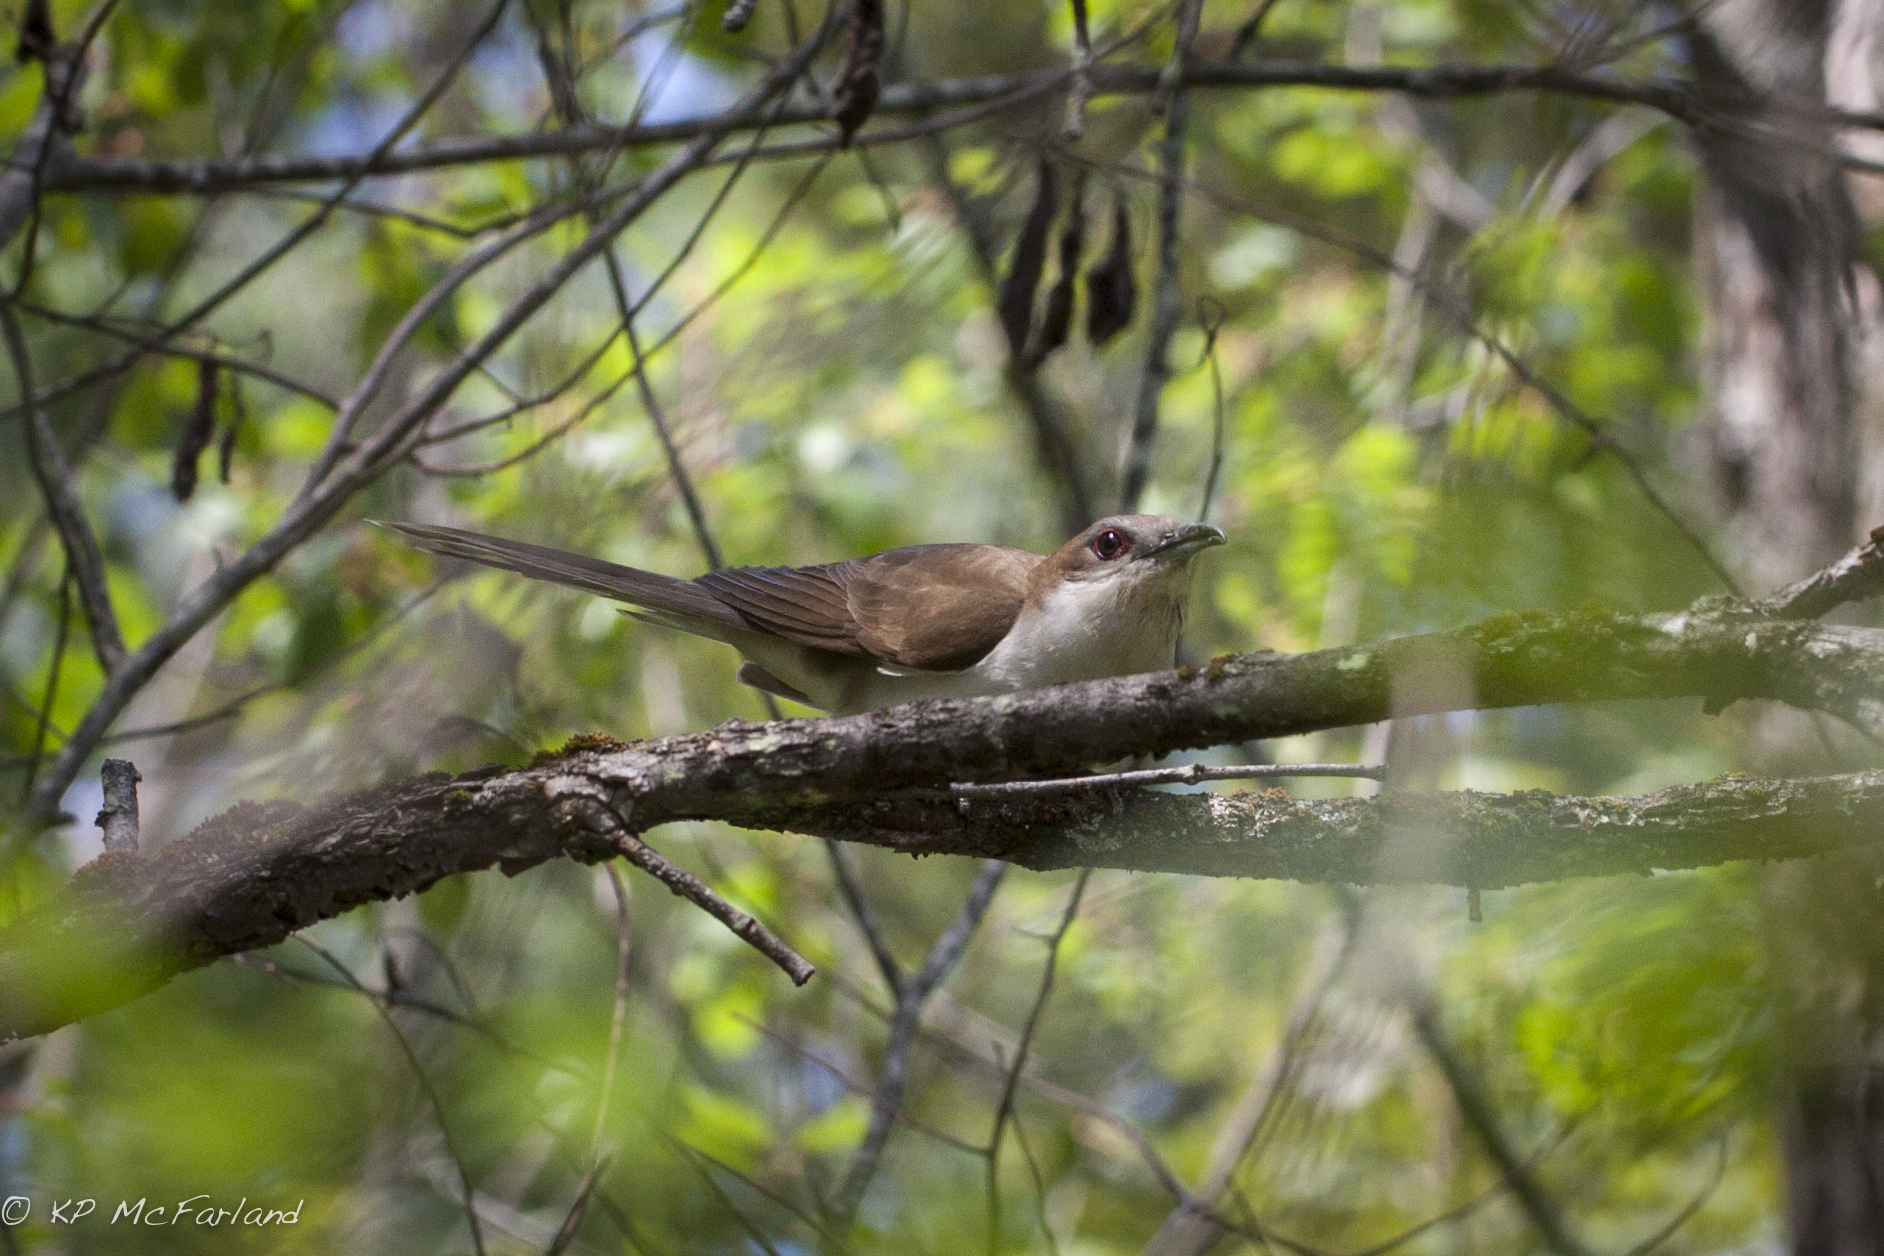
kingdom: Animalia
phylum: Chordata
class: Aves
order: Cuculiformes
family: Cuculidae
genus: Coccyzus
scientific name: Coccyzus erythropthalmus
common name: Black-billed cuckoo
